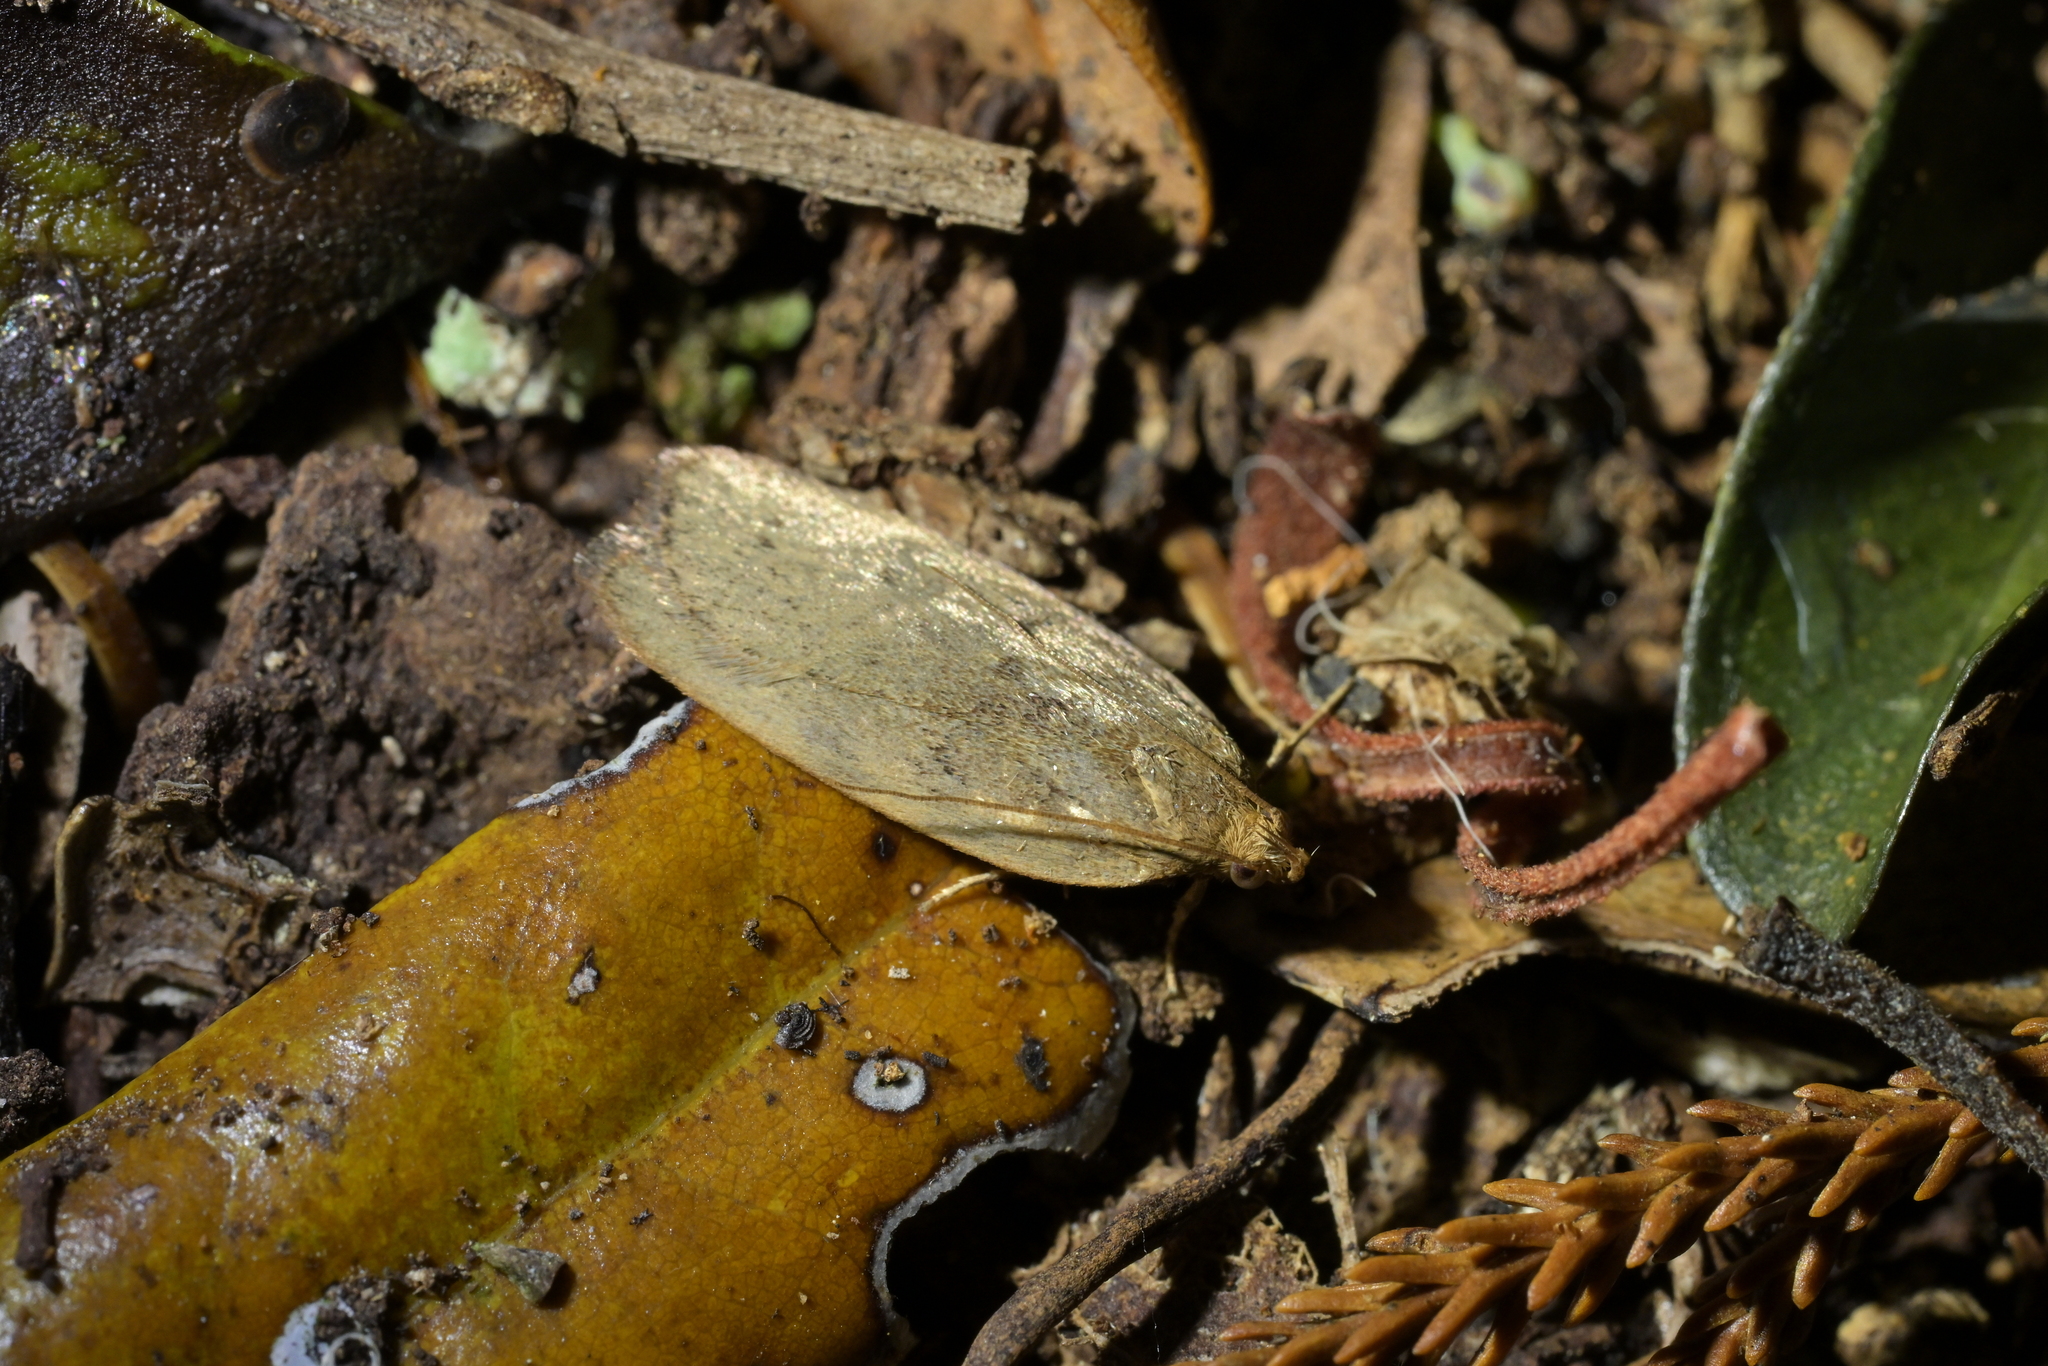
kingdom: Animalia
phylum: Arthropoda
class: Insecta
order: Lepidoptera
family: Depressariidae
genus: Phaeosaces
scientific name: Phaeosaces coarctatella
